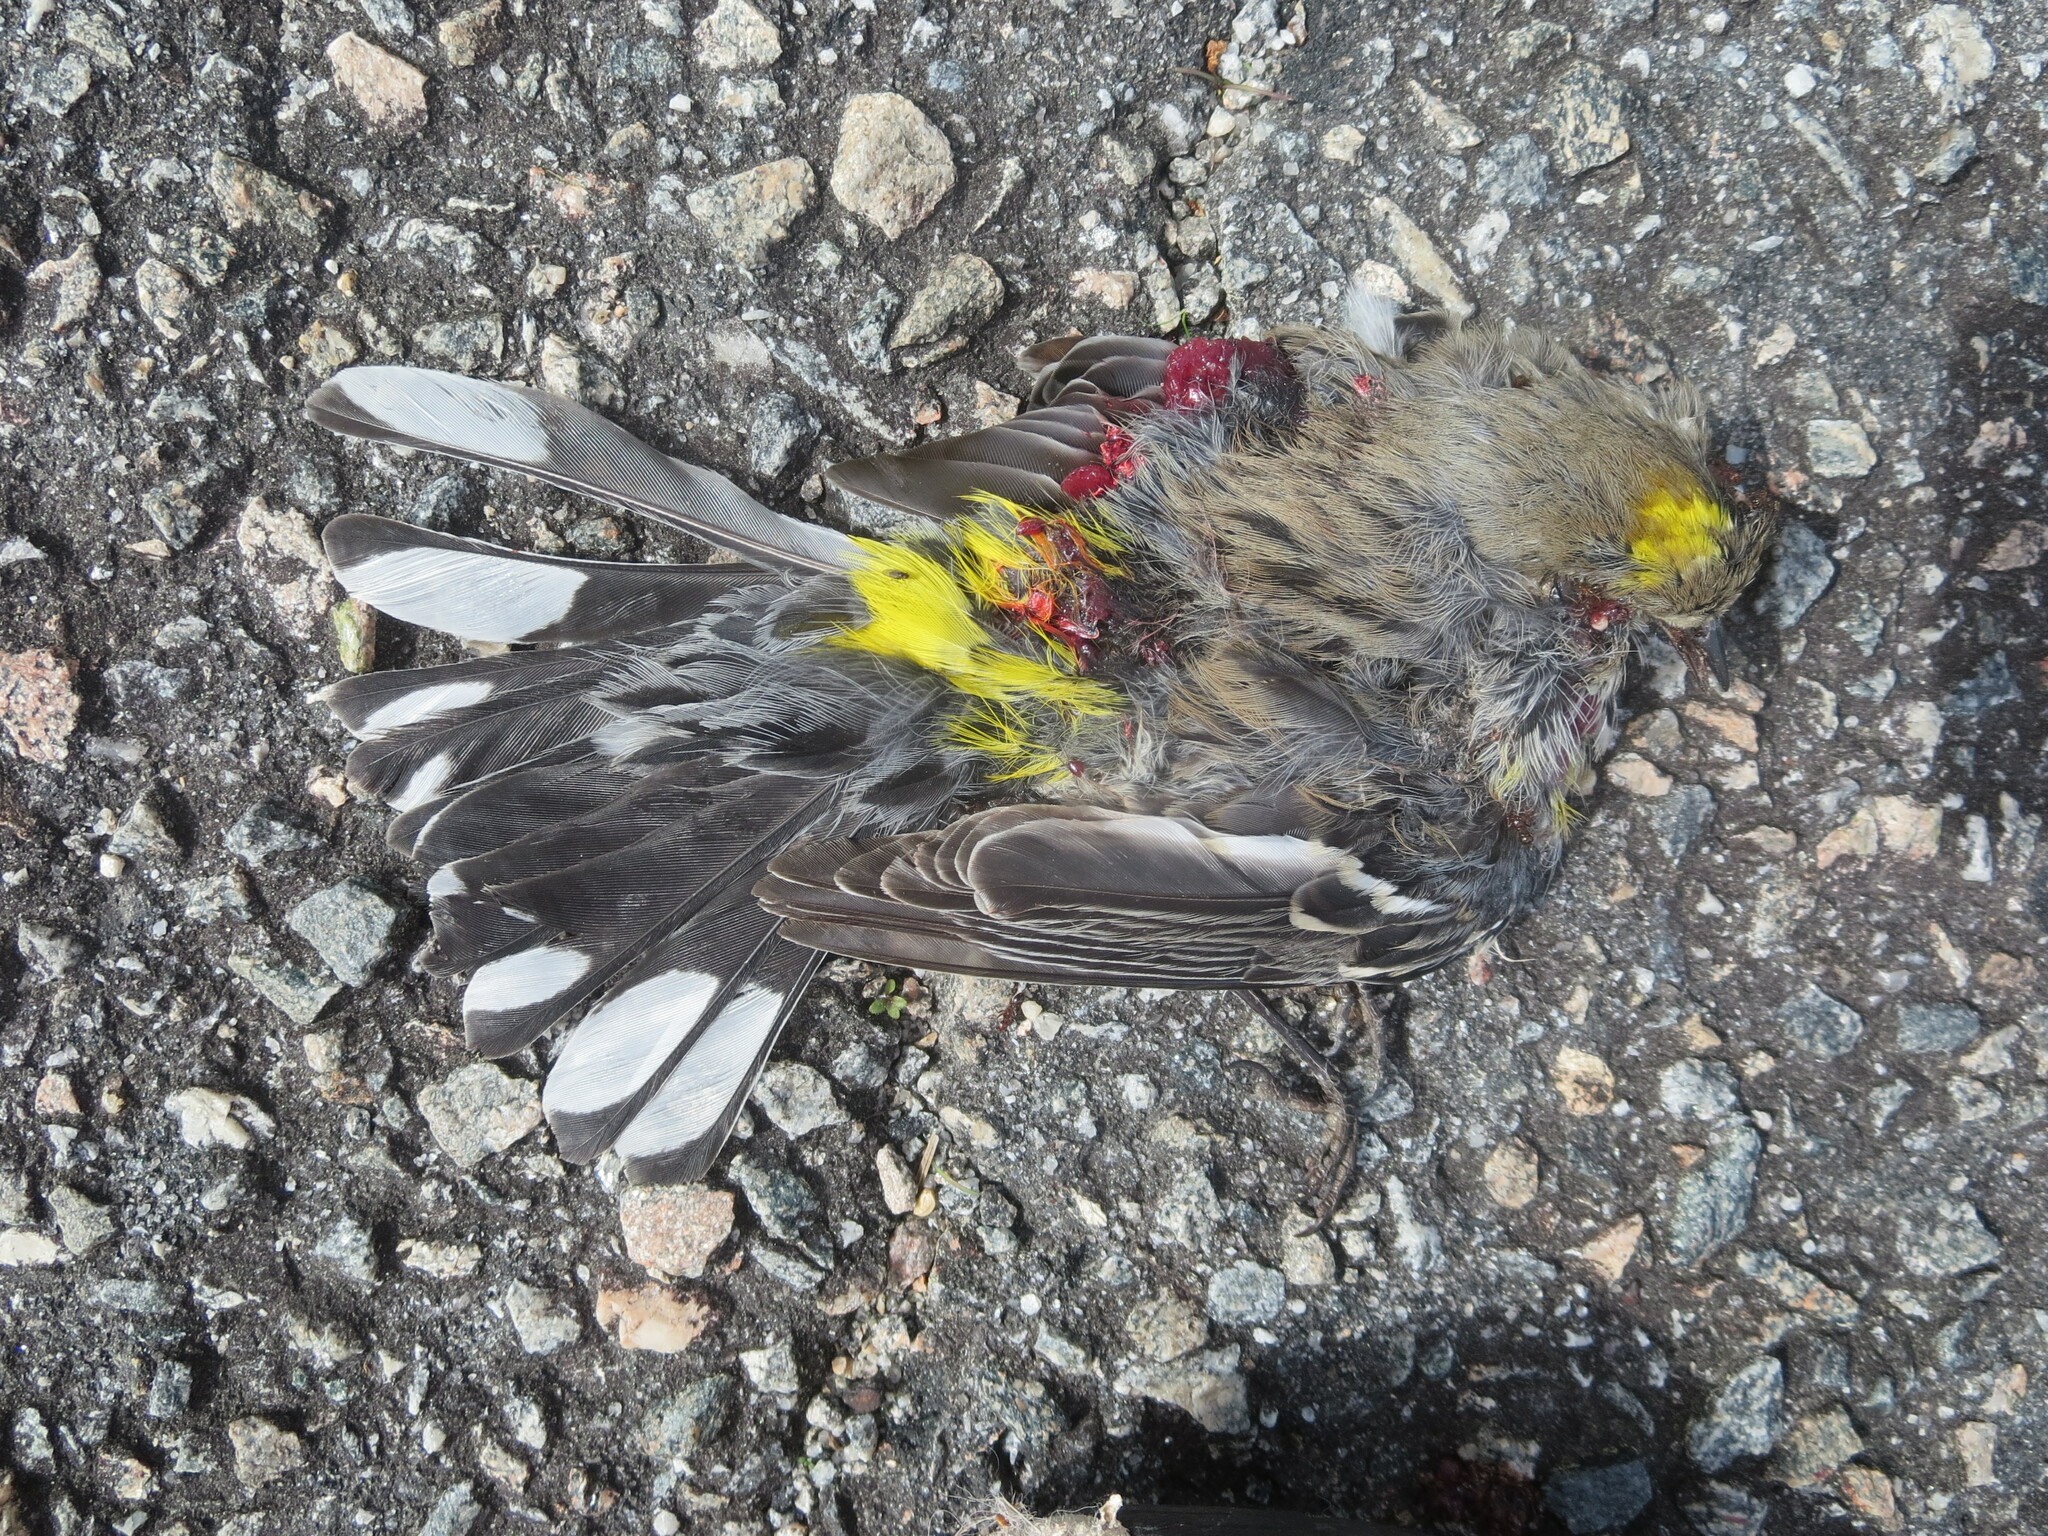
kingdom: Animalia
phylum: Chordata
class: Aves
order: Passeriformes
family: Parulidae
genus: Setophaga
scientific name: Setophaga coronata
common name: Myrtle warbler
